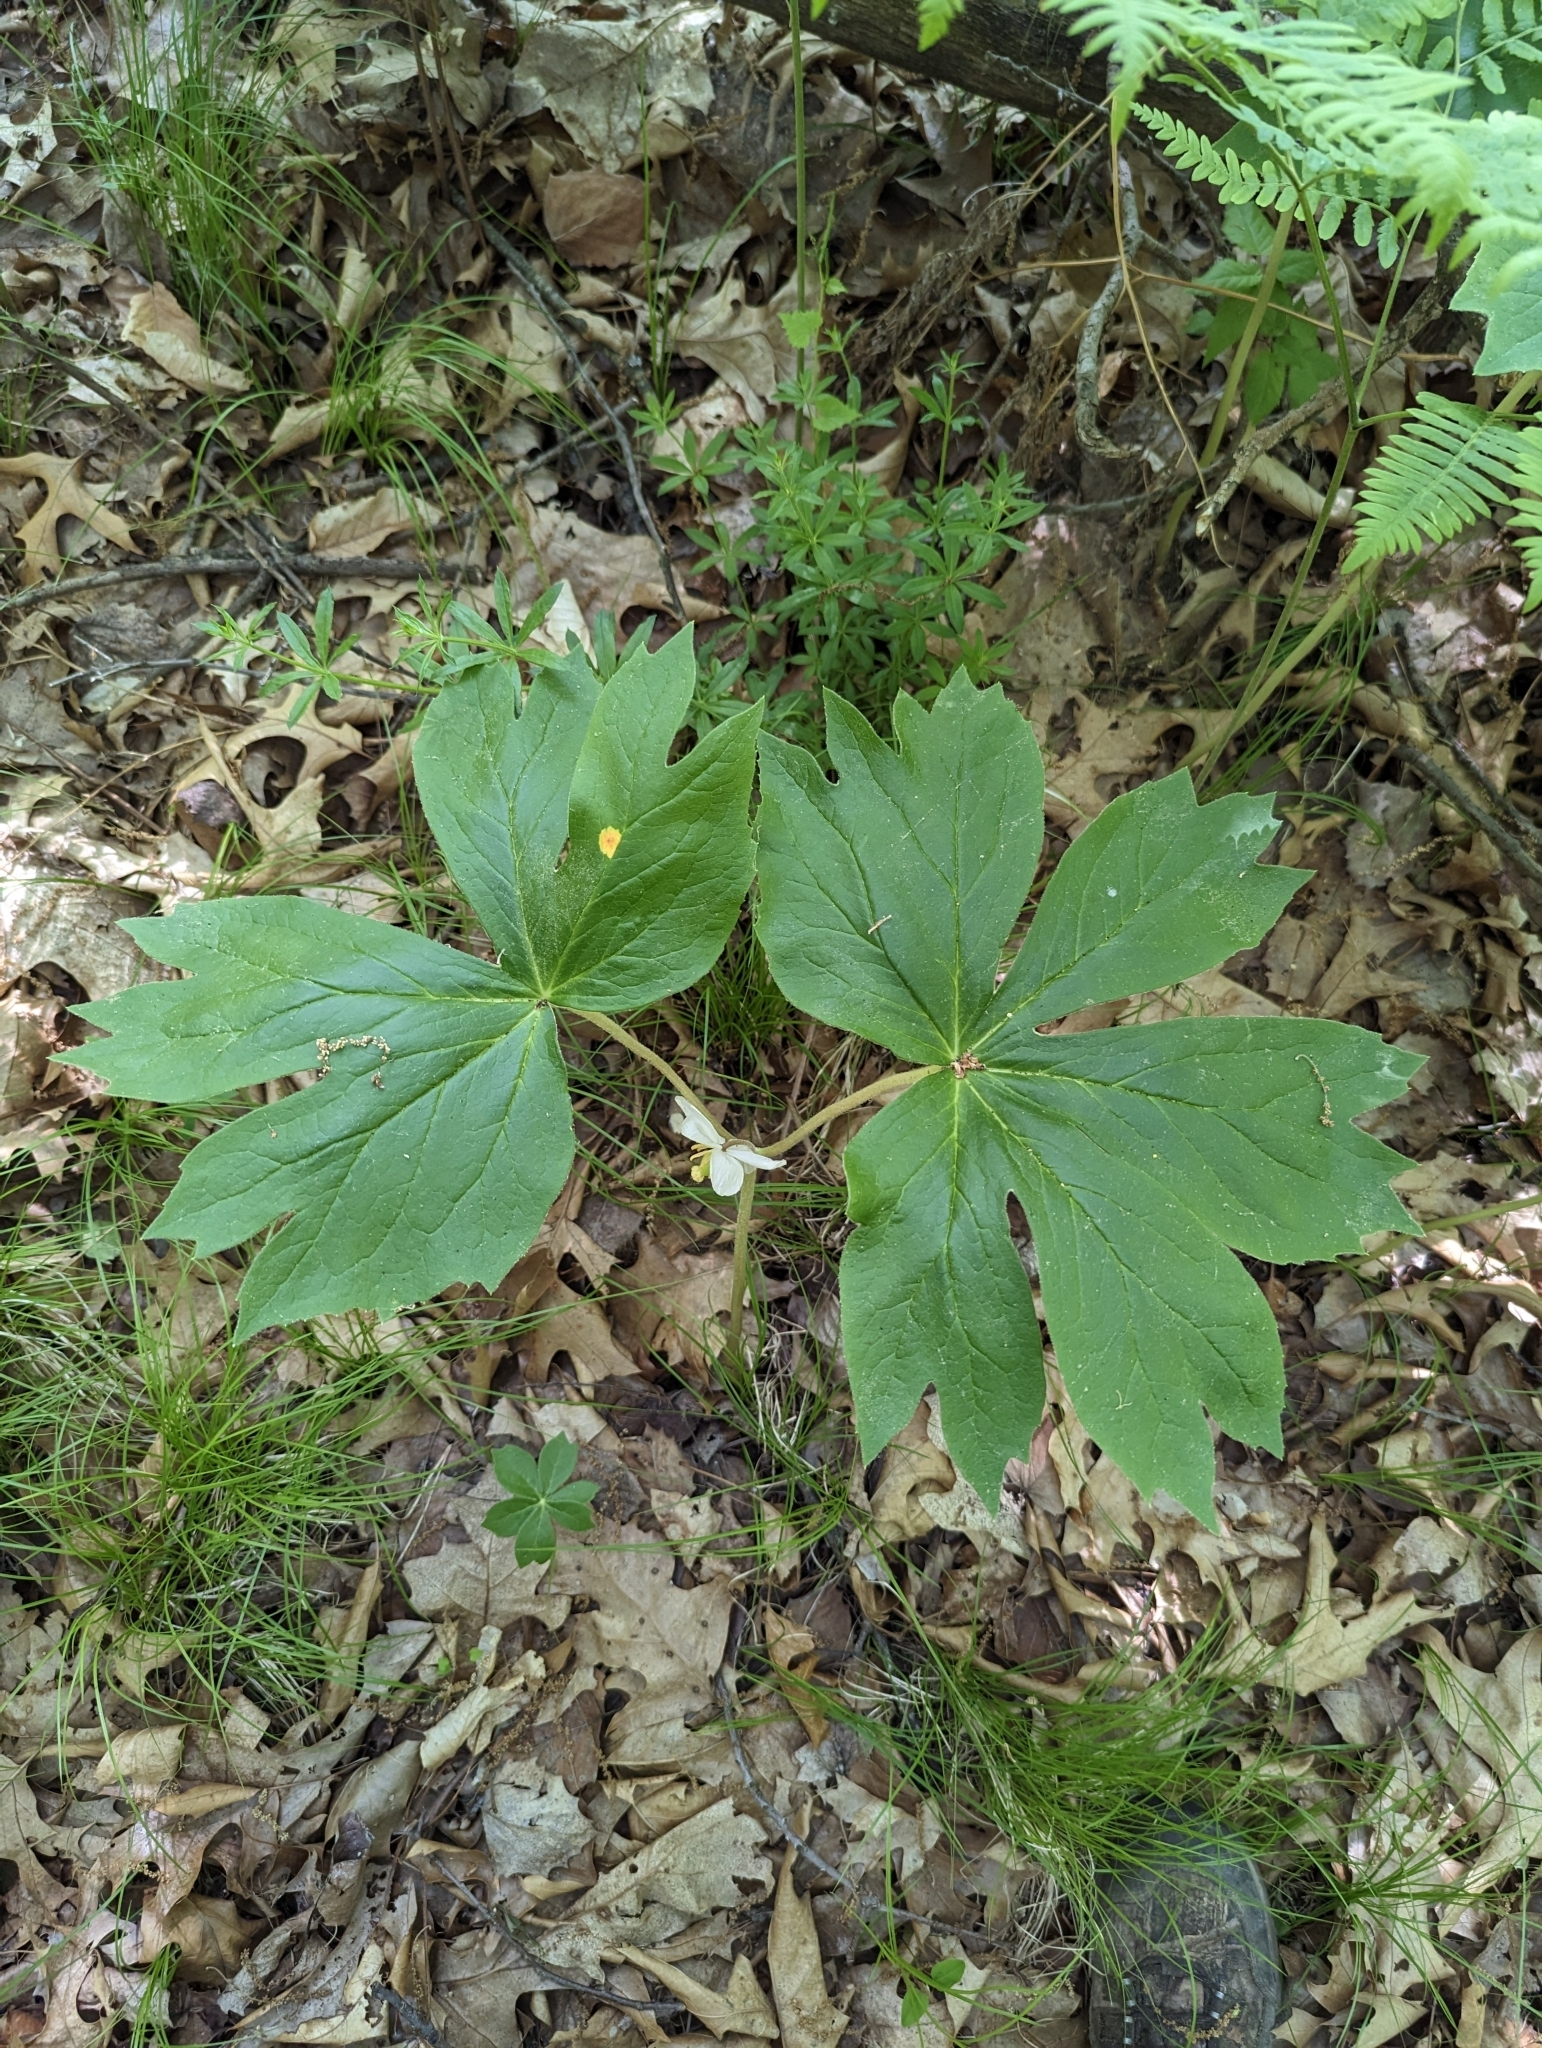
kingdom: Plantae
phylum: Tracheophyta
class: Magnoliopsida
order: Ranunculales
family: Berberidaceae
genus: Podophyllum
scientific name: Podophyllum peltatum
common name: Wild mandrake
